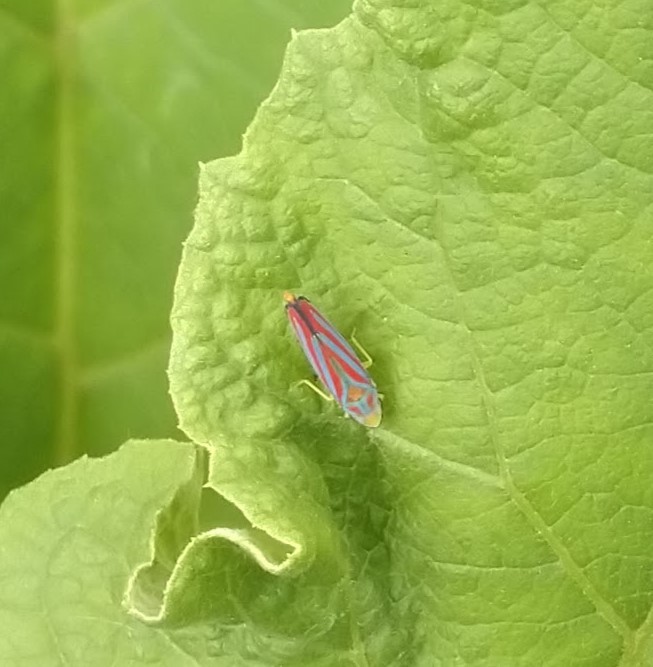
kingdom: Animalia
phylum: Arthropoda
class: Insecta
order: Hemiptera
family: Cicadellidae
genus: Graphocephala
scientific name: Graphocephala coccinea
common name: Candy-striped leafhopper
